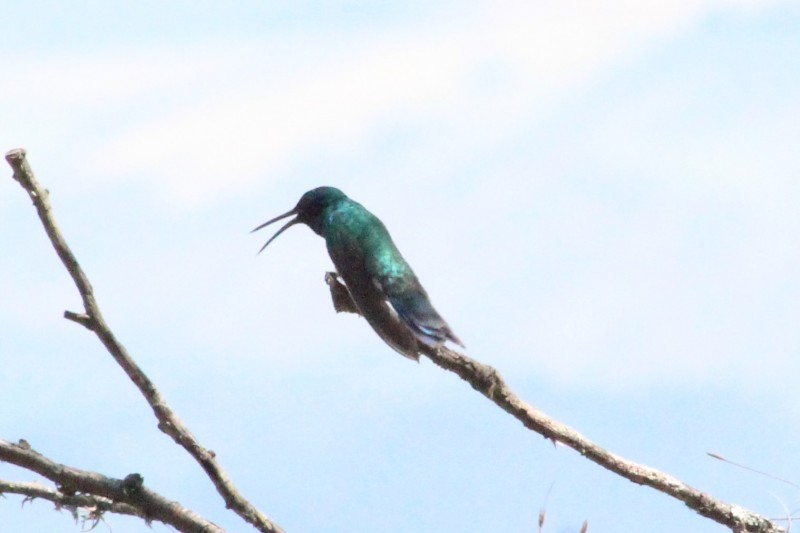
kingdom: Animalia
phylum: Chordata
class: Aves
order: Apodiformes
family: Trochilidae
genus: Colibri
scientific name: Colibri coruscans
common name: Sparkling violetear
